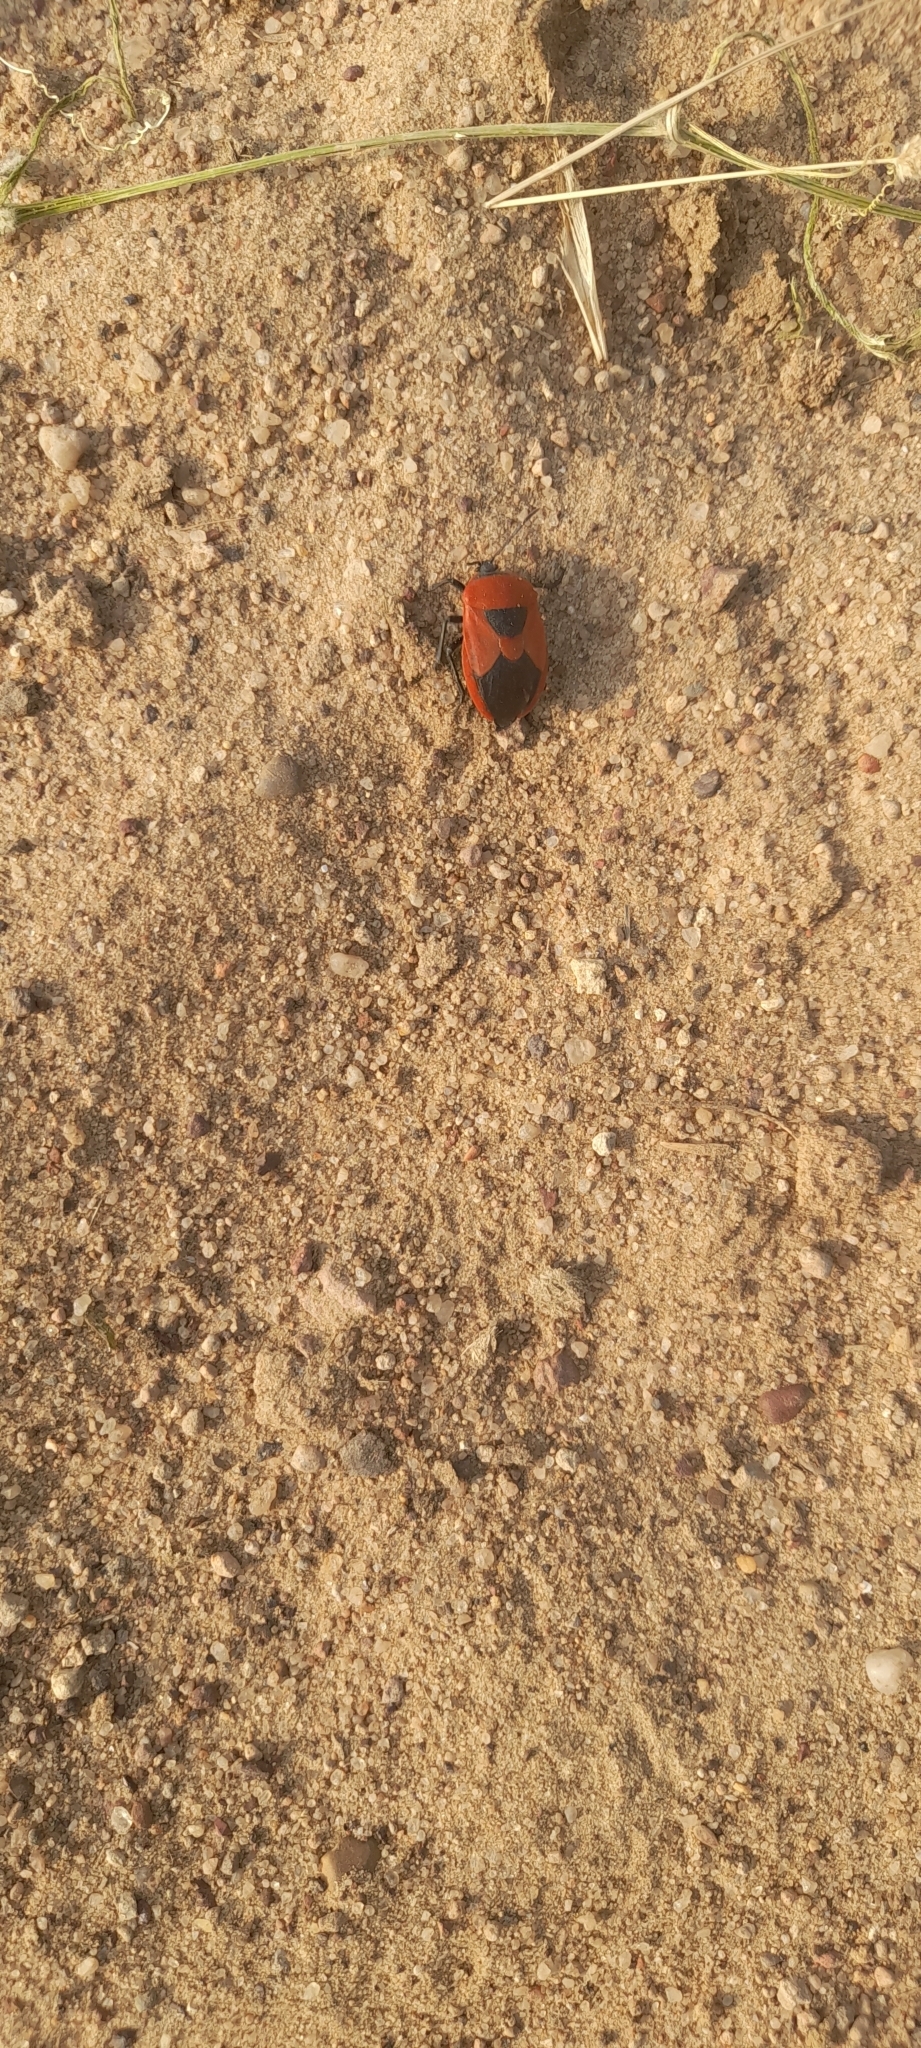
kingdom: Animalia
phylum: Arthropoda
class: Insecta
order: Hemiptera
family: Dinidoridae
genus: Coridius
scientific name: Coridius ianus
